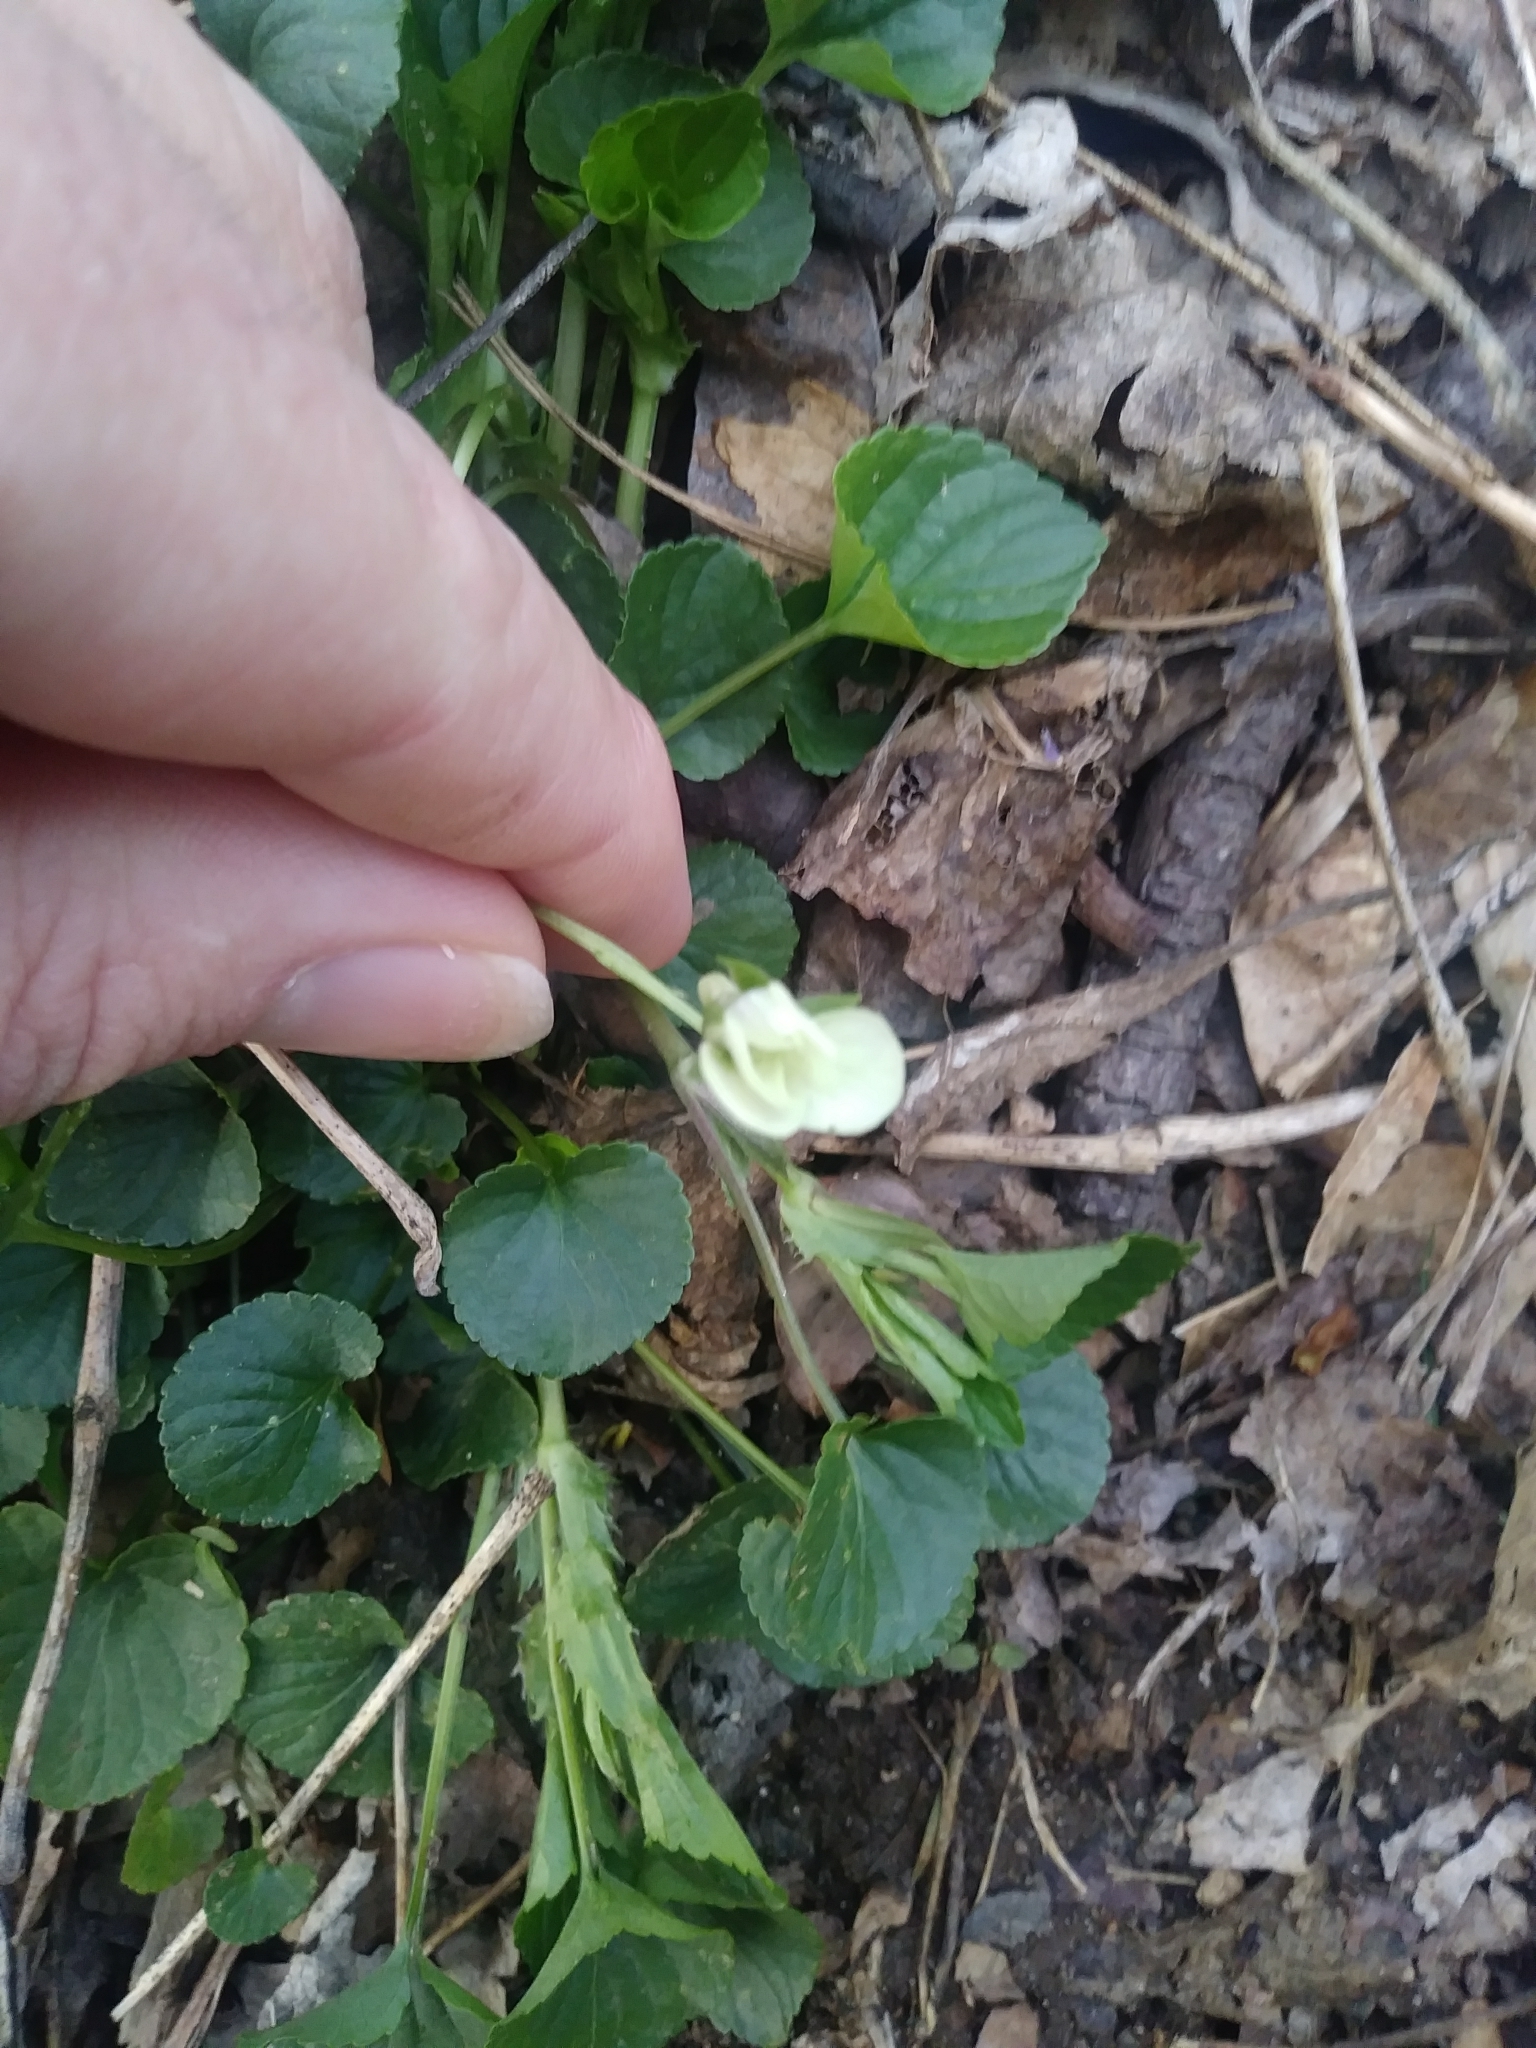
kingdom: Plantae
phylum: Tracheophyta
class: Magnoliopsida
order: Malpighiales
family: Violaceae
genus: Viola
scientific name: Viola striata
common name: Cream violet
